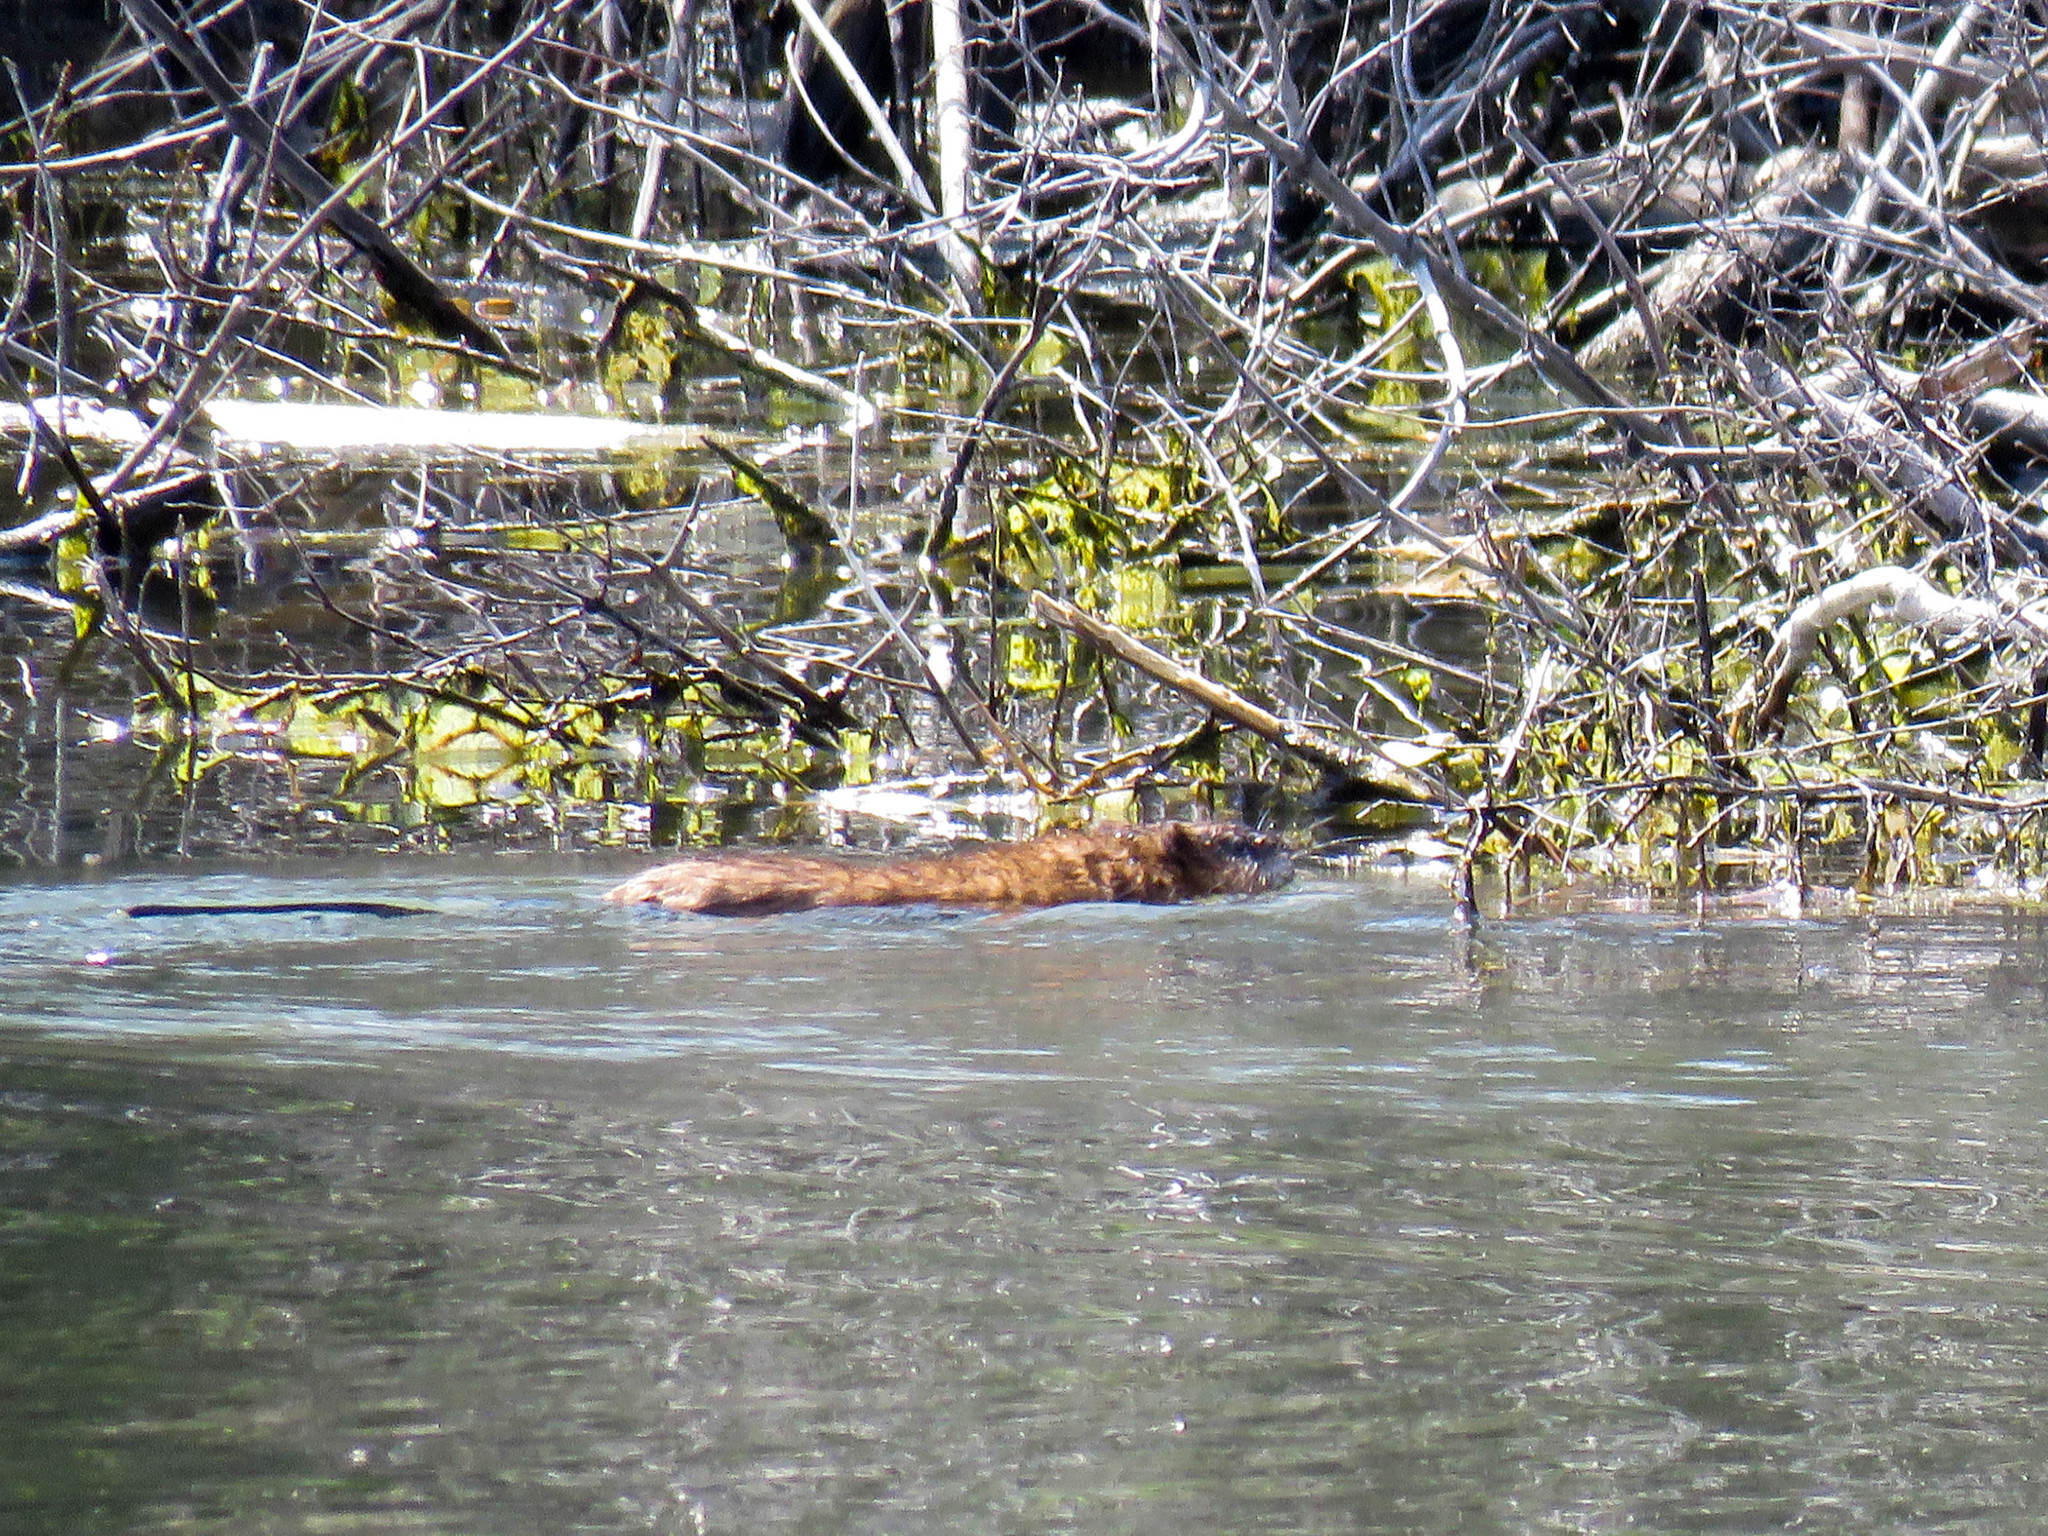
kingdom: Animalia
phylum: Chordata
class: Mammalia
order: Rodentia
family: Cricetidae
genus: Ondatra
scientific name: Ondatra zibethicus
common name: Muskrat
